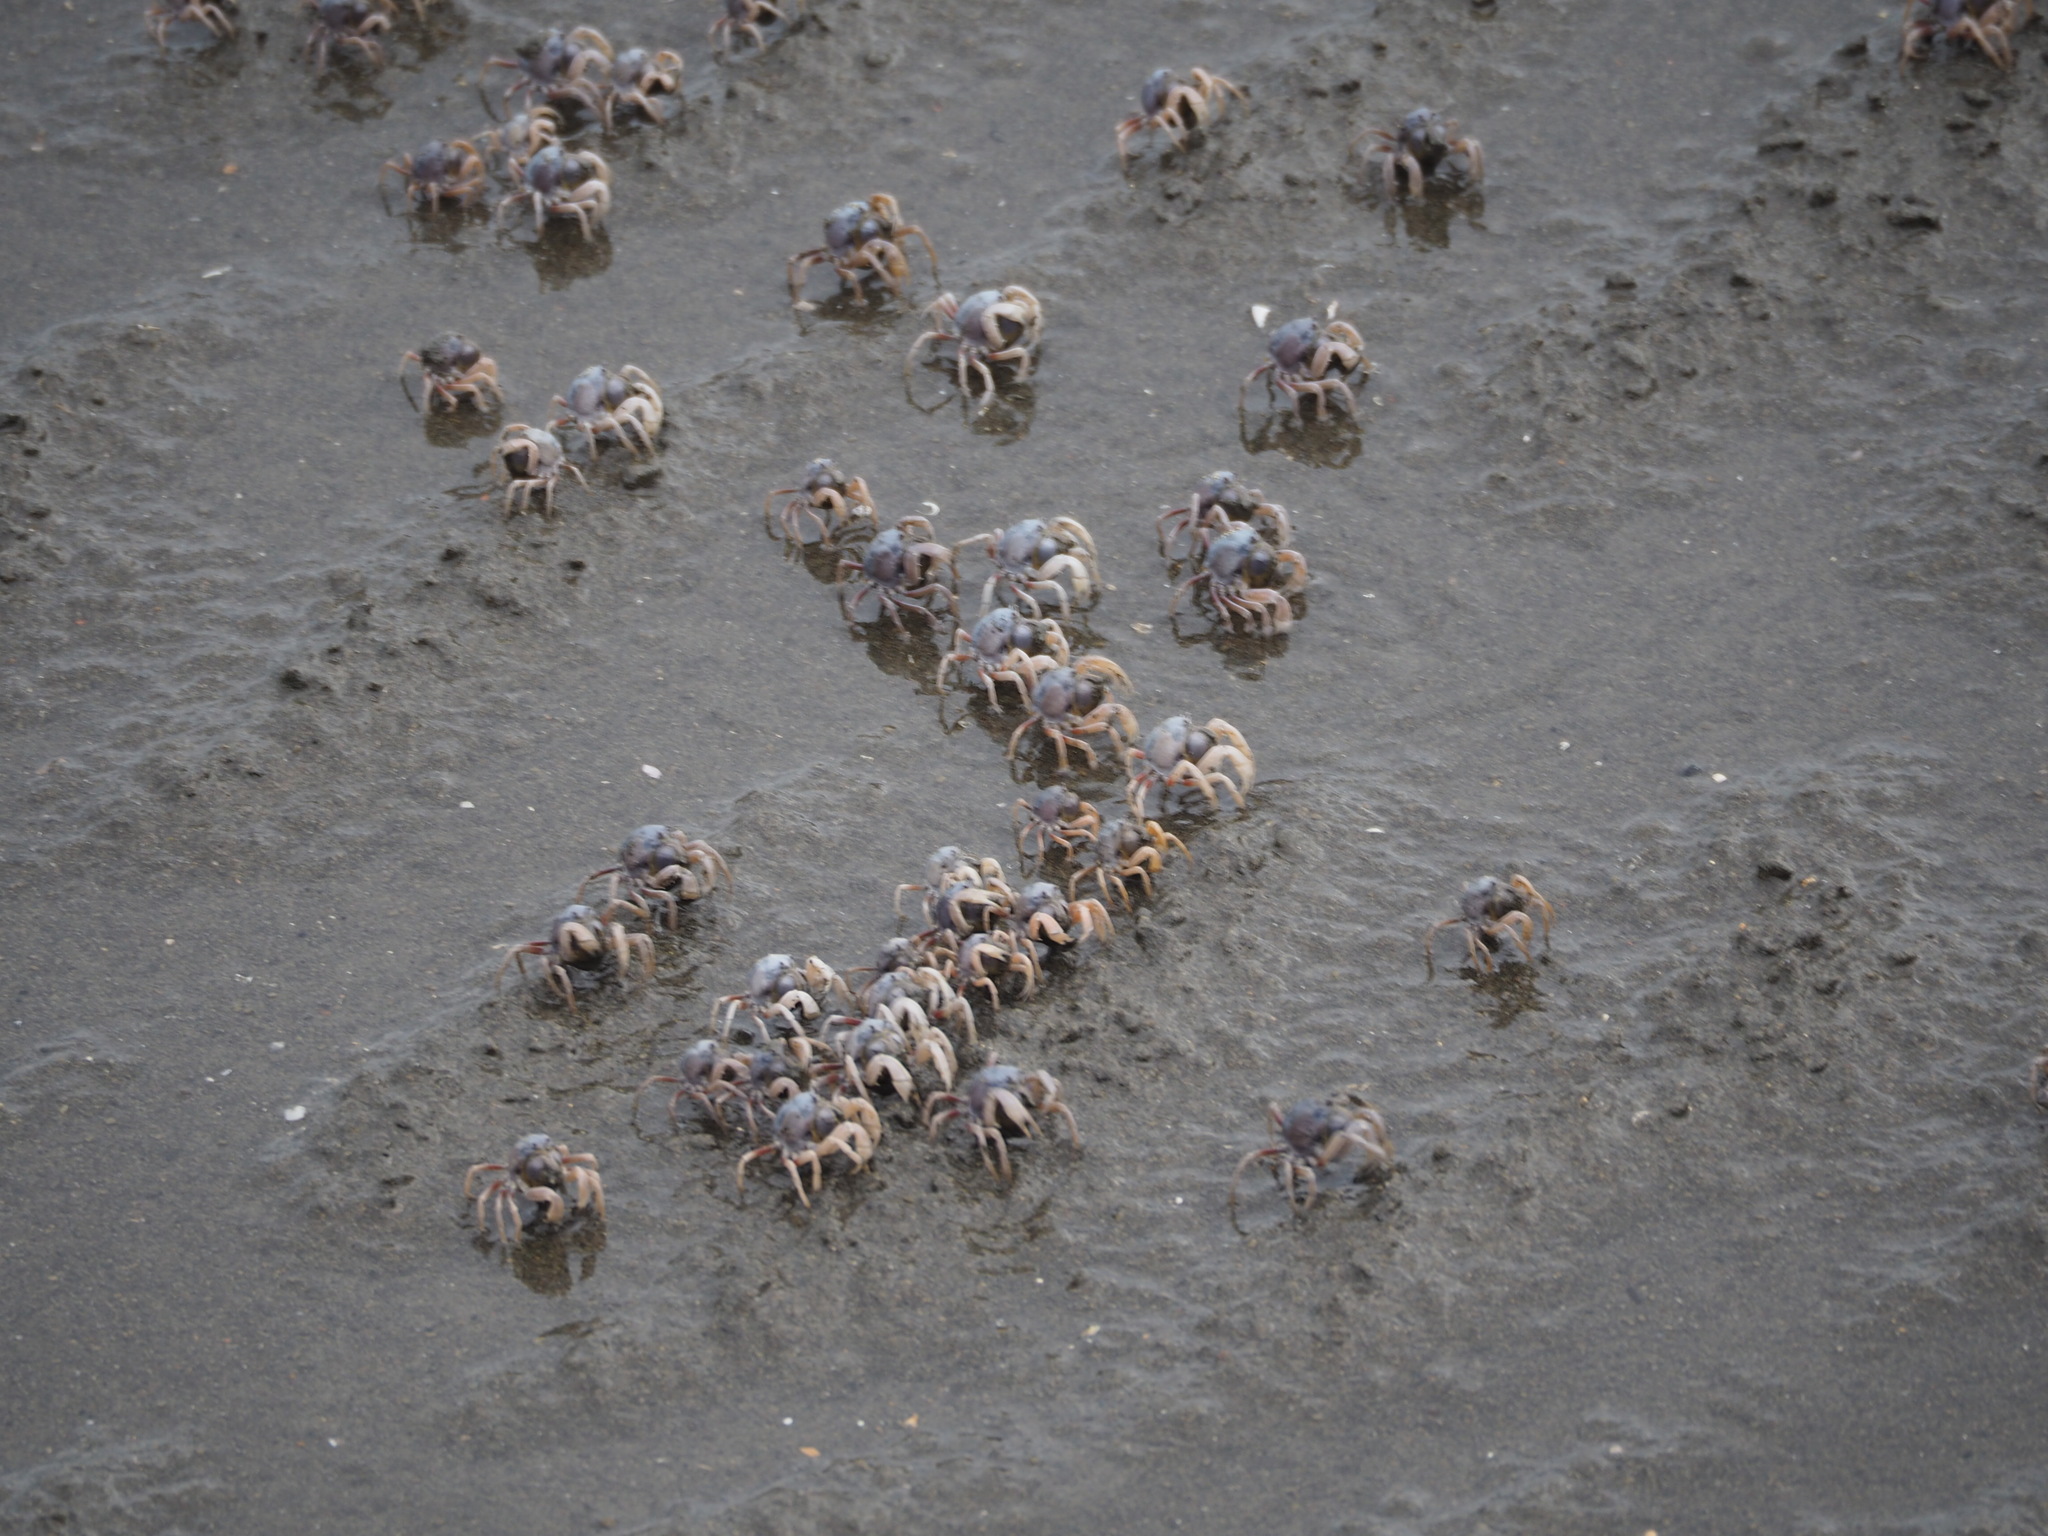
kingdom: Animalia
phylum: Arthropoda
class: Malacostraca
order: Decapoda
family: Mictyridae
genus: Mictyris
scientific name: Mictyris brevidactylus
